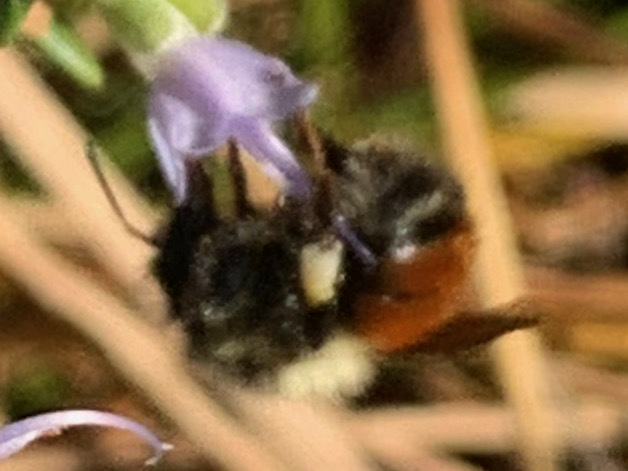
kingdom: Animalia
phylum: Arthropoda
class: Insecta
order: Hymenoptera
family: Apidae
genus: Bombus
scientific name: Bombus melanopygus
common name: Black tail bumble bee
